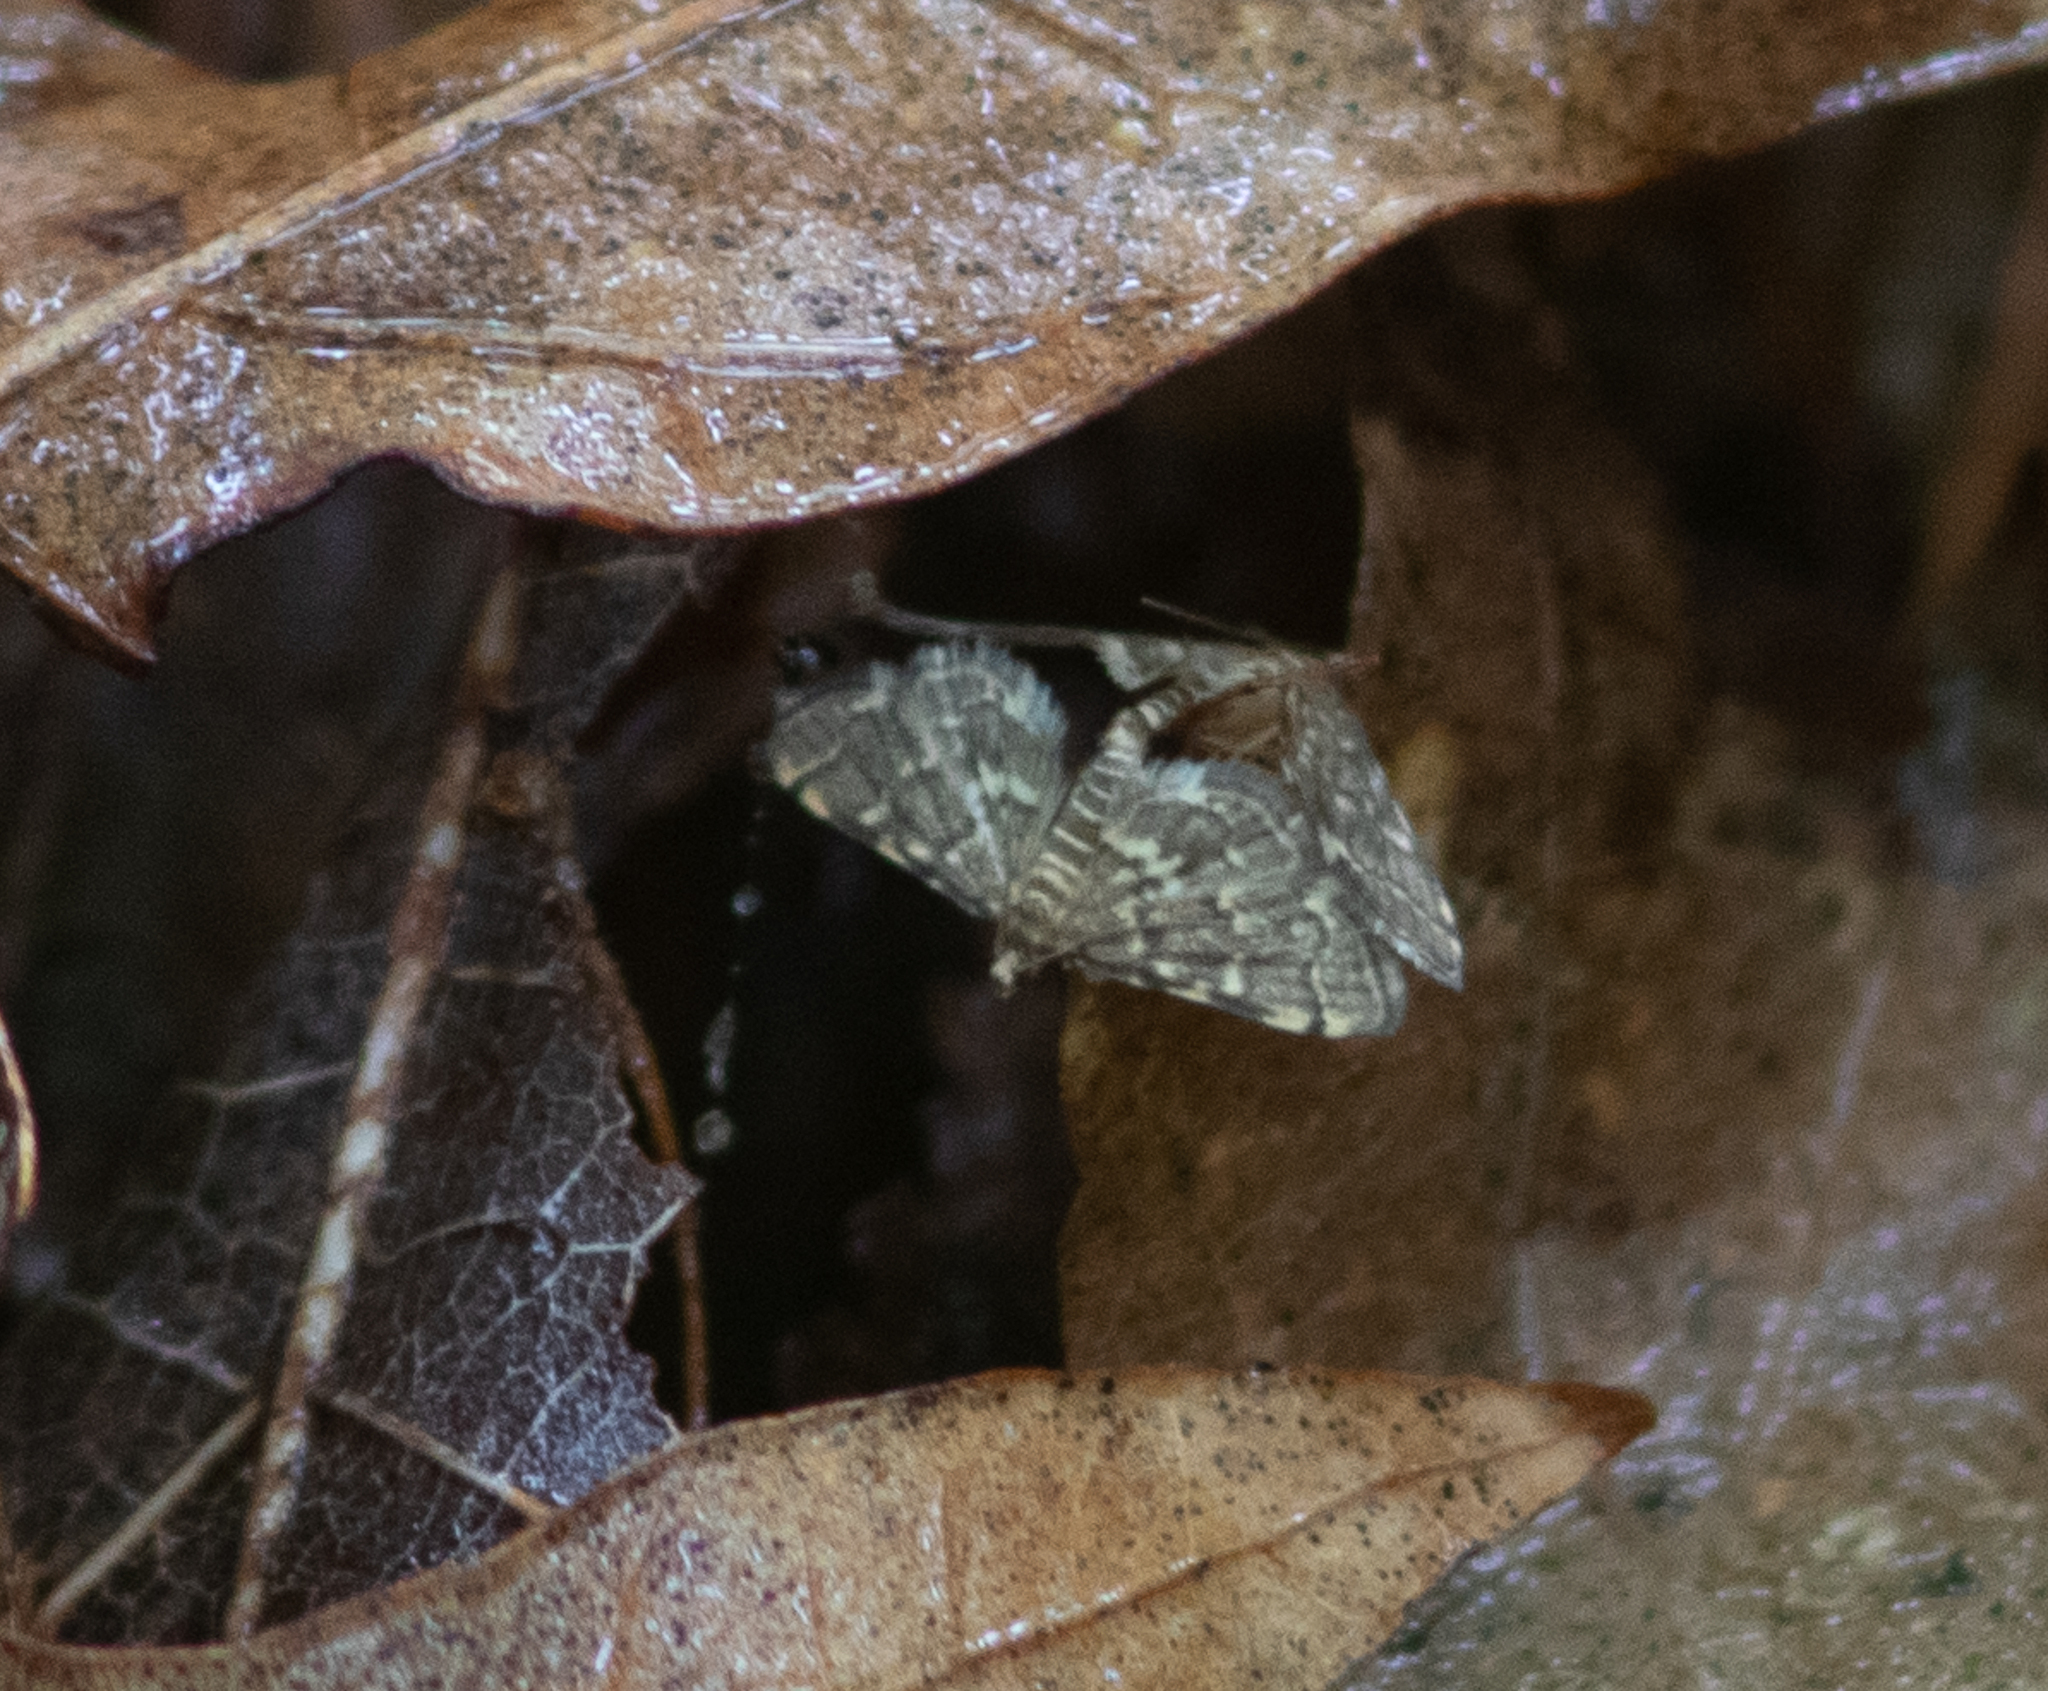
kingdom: Animalia
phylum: Arthropoda
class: Insecta
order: Lepidoptera
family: Crambidae
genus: Anageshna
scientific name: Anageshna primordialis
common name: Yellow-spotted webworm moth
